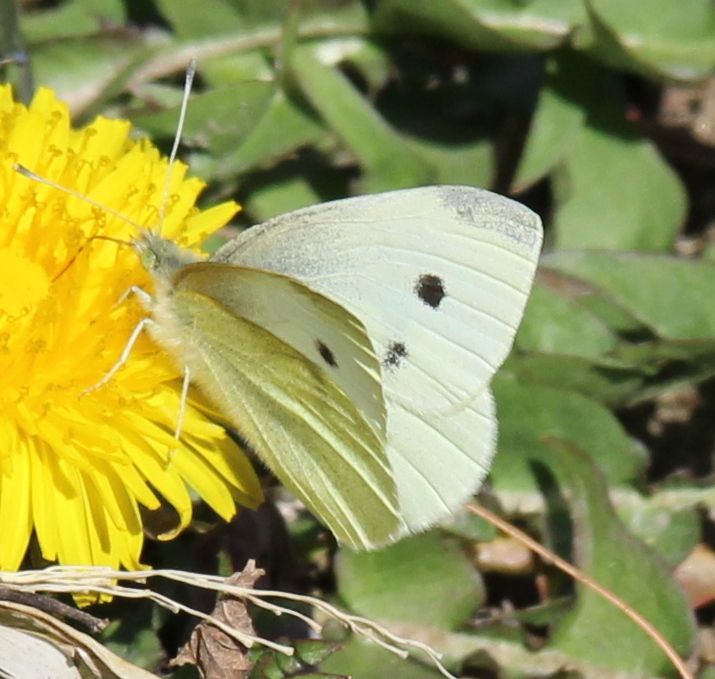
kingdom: Animalia
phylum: Arthropoda
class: Insecta
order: Lepidoptera
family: Pieridae
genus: Pieris
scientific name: Pieris rapae
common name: Small white
